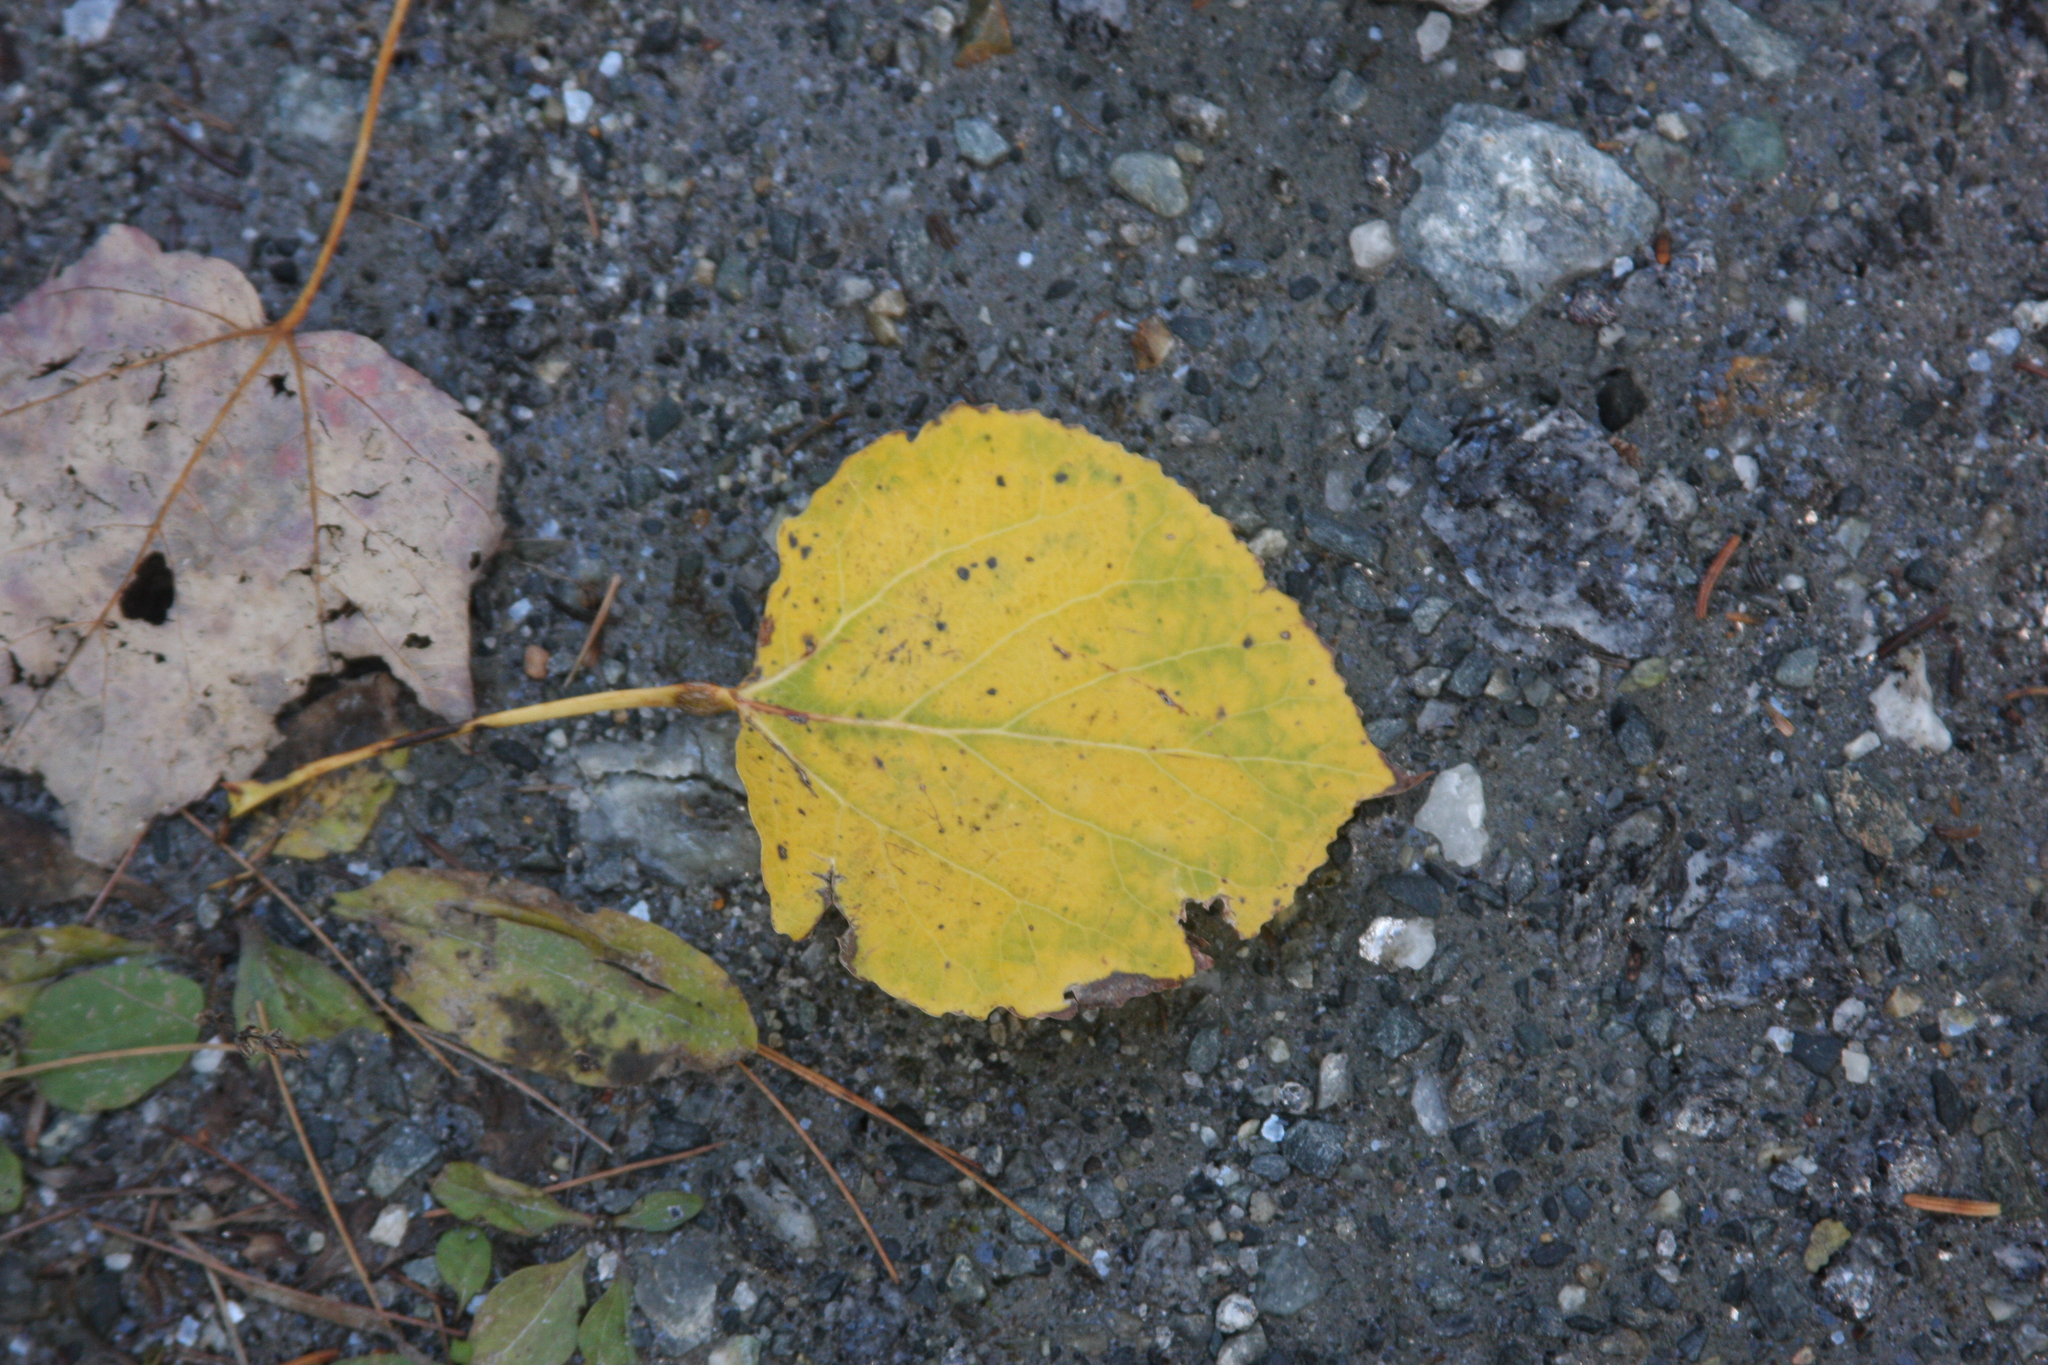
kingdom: Plantae
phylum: Tracheophyta
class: Magnoliopsida
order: Malpighiales
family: Salicaceae
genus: Populus
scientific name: Populus tremuloides
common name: Quaking aspen
